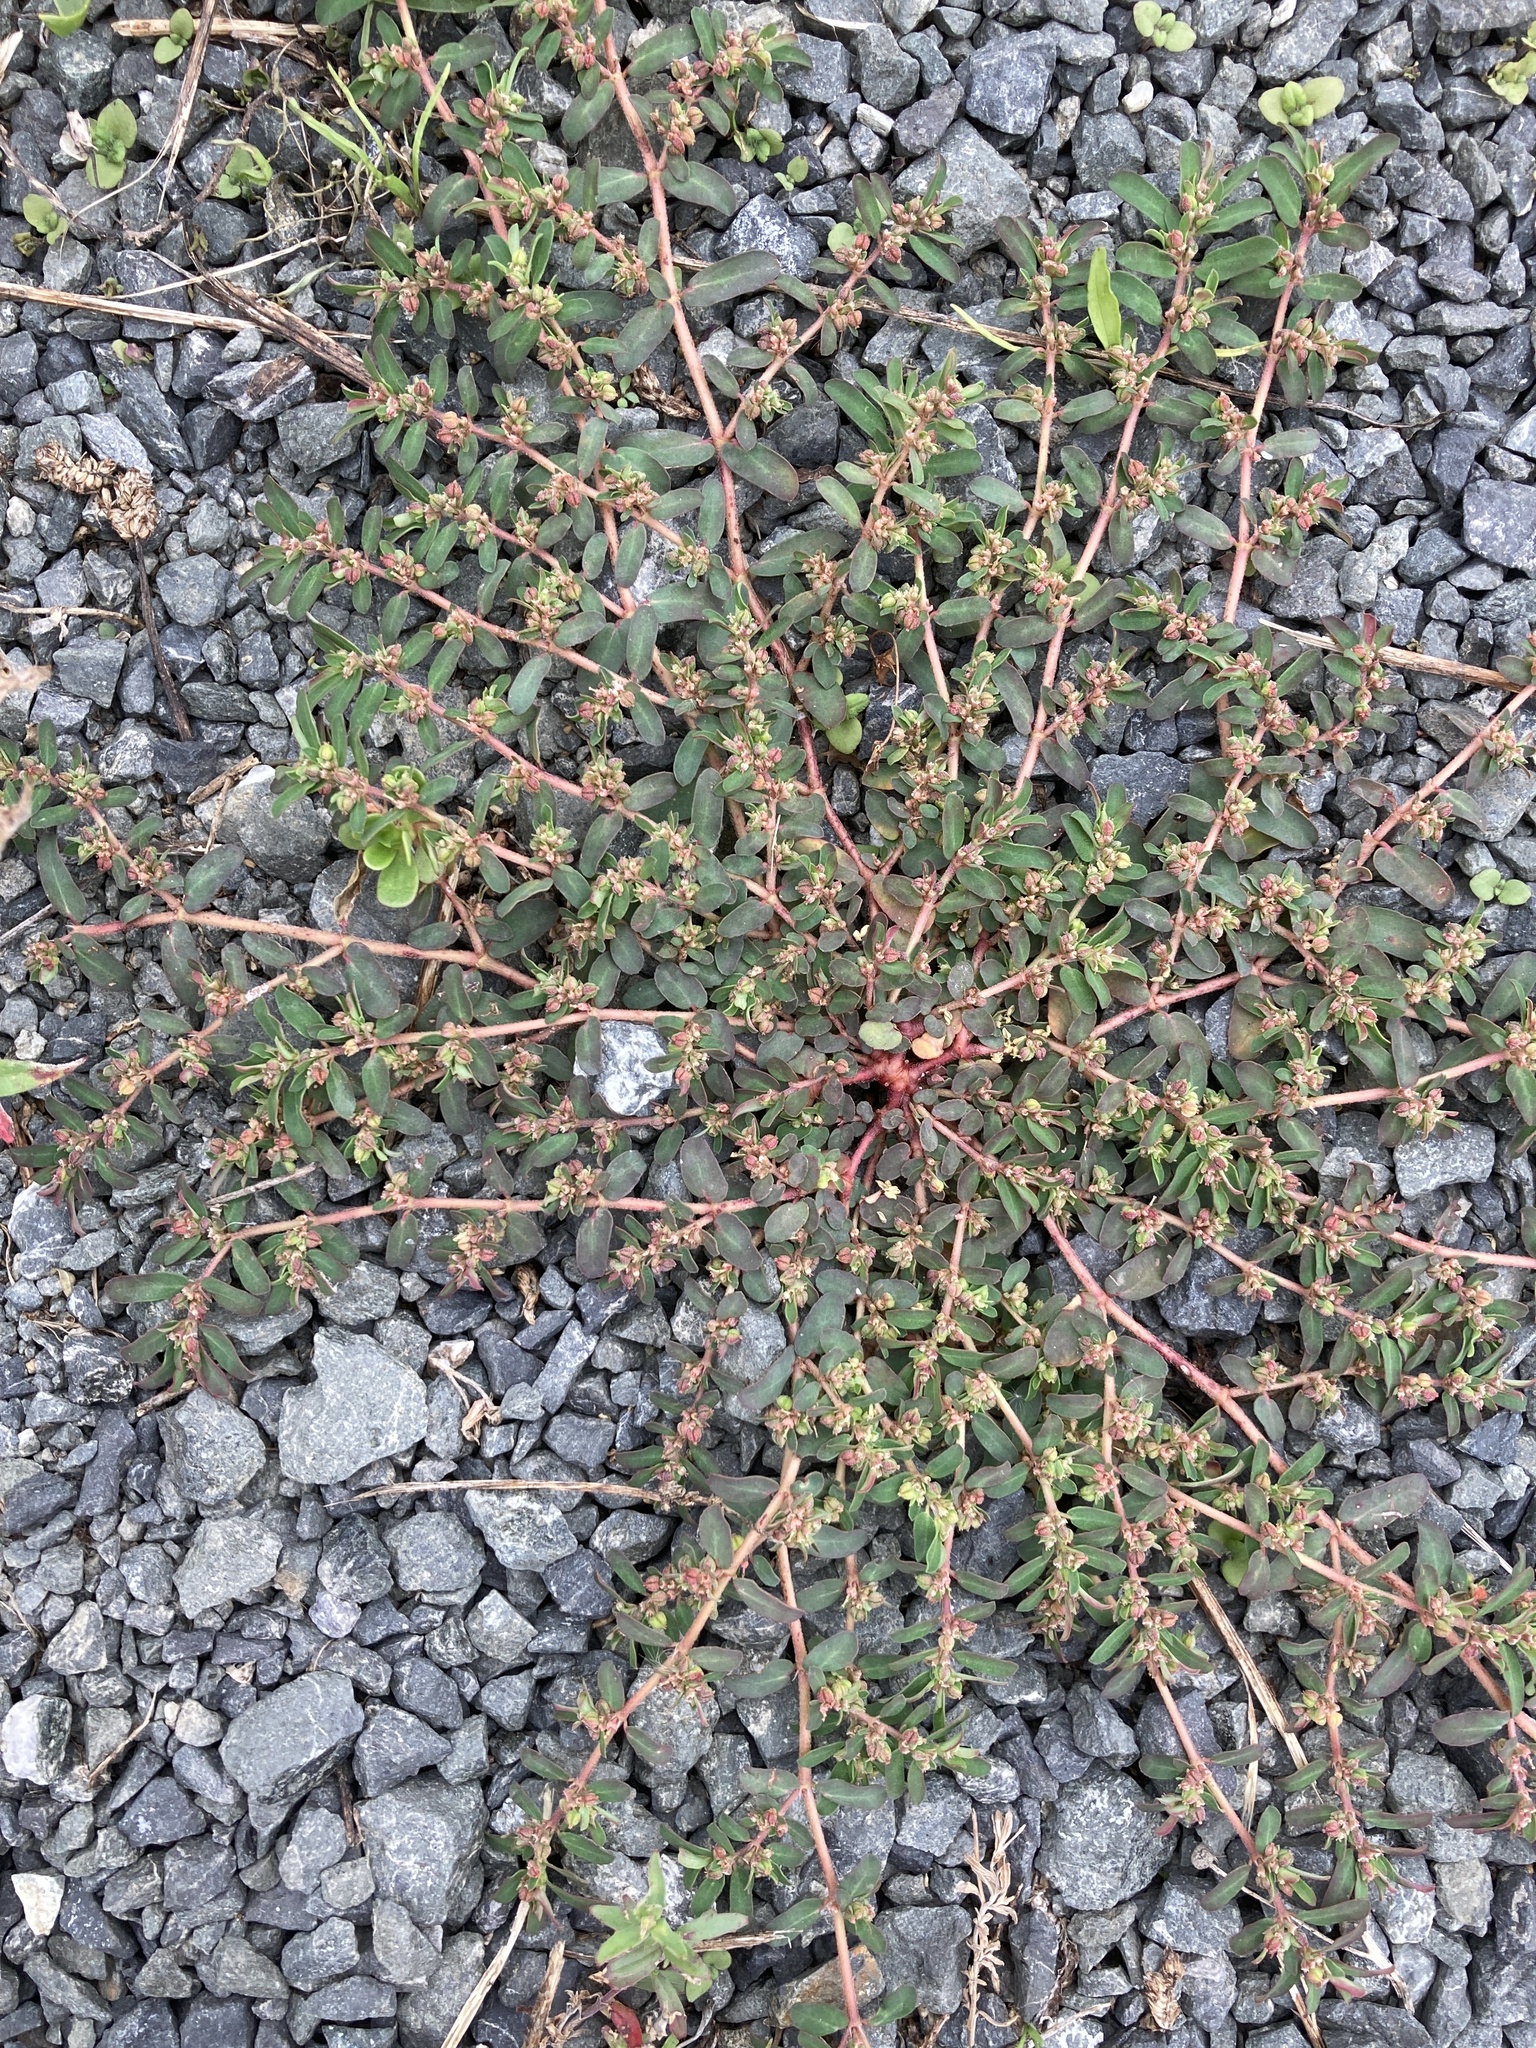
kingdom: Plantae
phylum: Tracheophyta
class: Magnoliopsida
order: Malpighiales
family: Euphorbiaceae
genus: Euphorbia
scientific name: Euphorbia maculata
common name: Spotted spurge
